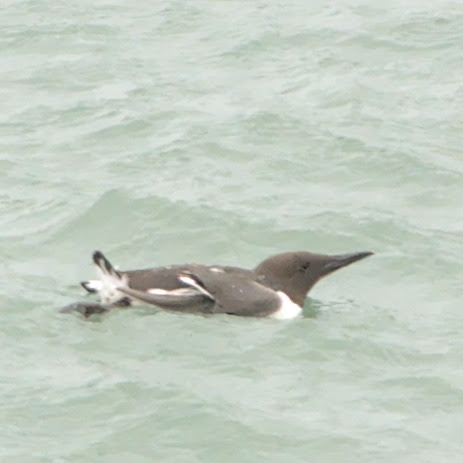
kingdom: Animalia
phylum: Chordata
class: Aves
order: Charadriiformes
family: Alcidae
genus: Uria
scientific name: Uria aalge
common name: Common murre
